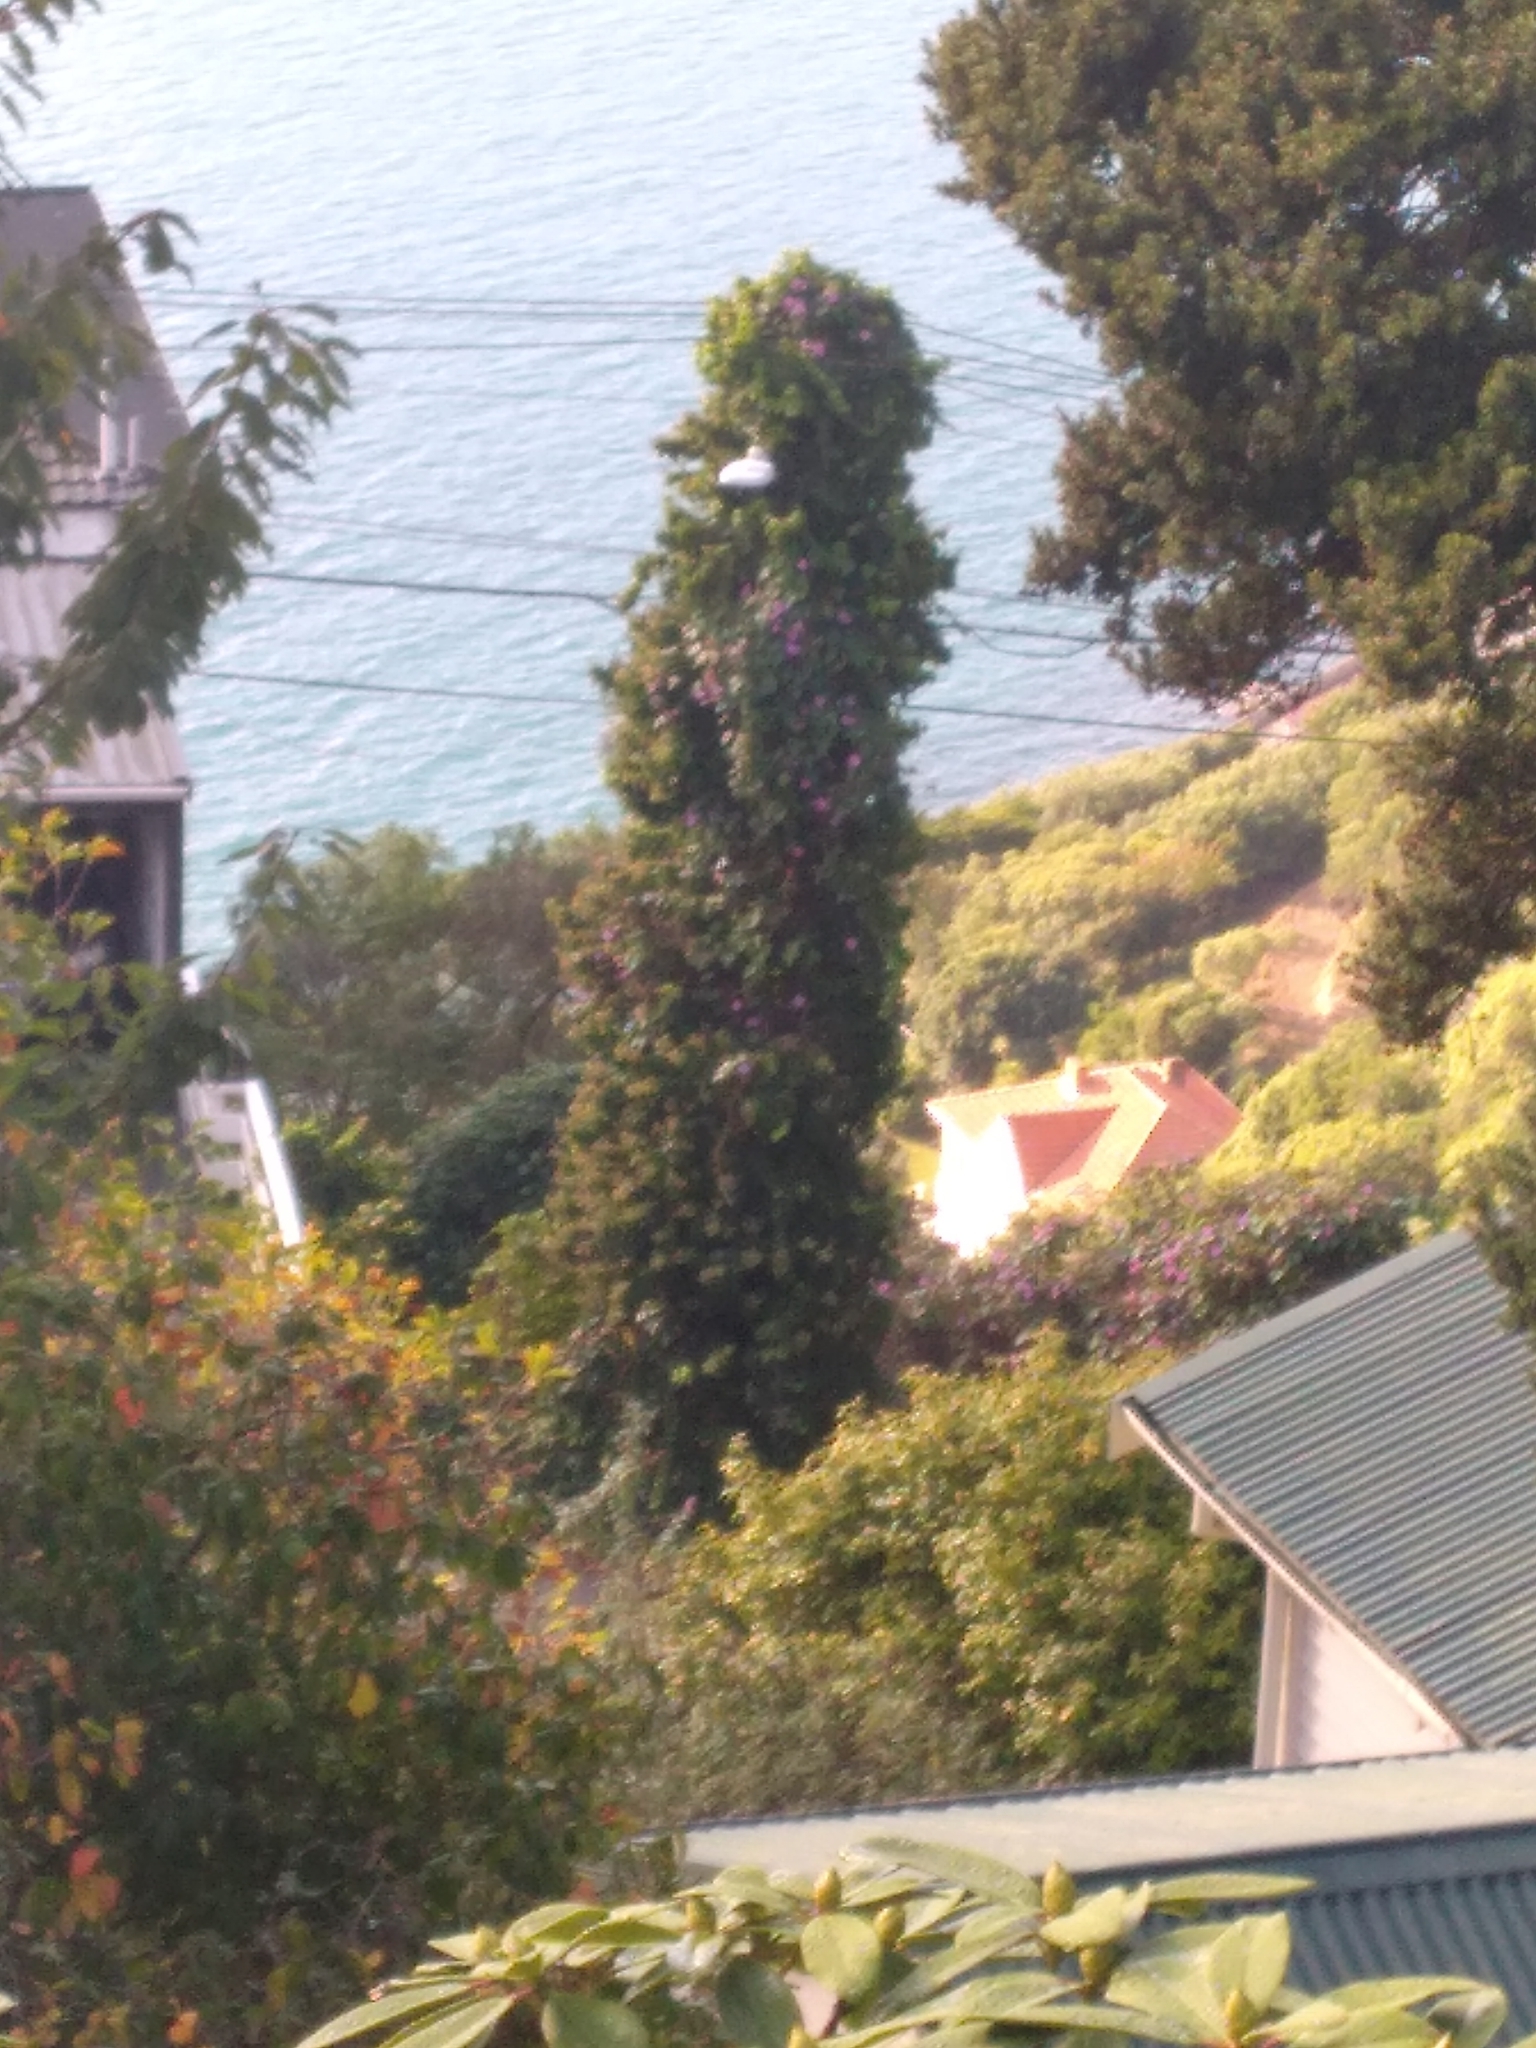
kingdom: Plantae
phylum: Tracheophyta
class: Magnoliopsida
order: Solanales
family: Convolvulaceae
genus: Ipomoea
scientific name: Ipomoea indica
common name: Blue dawnflower
